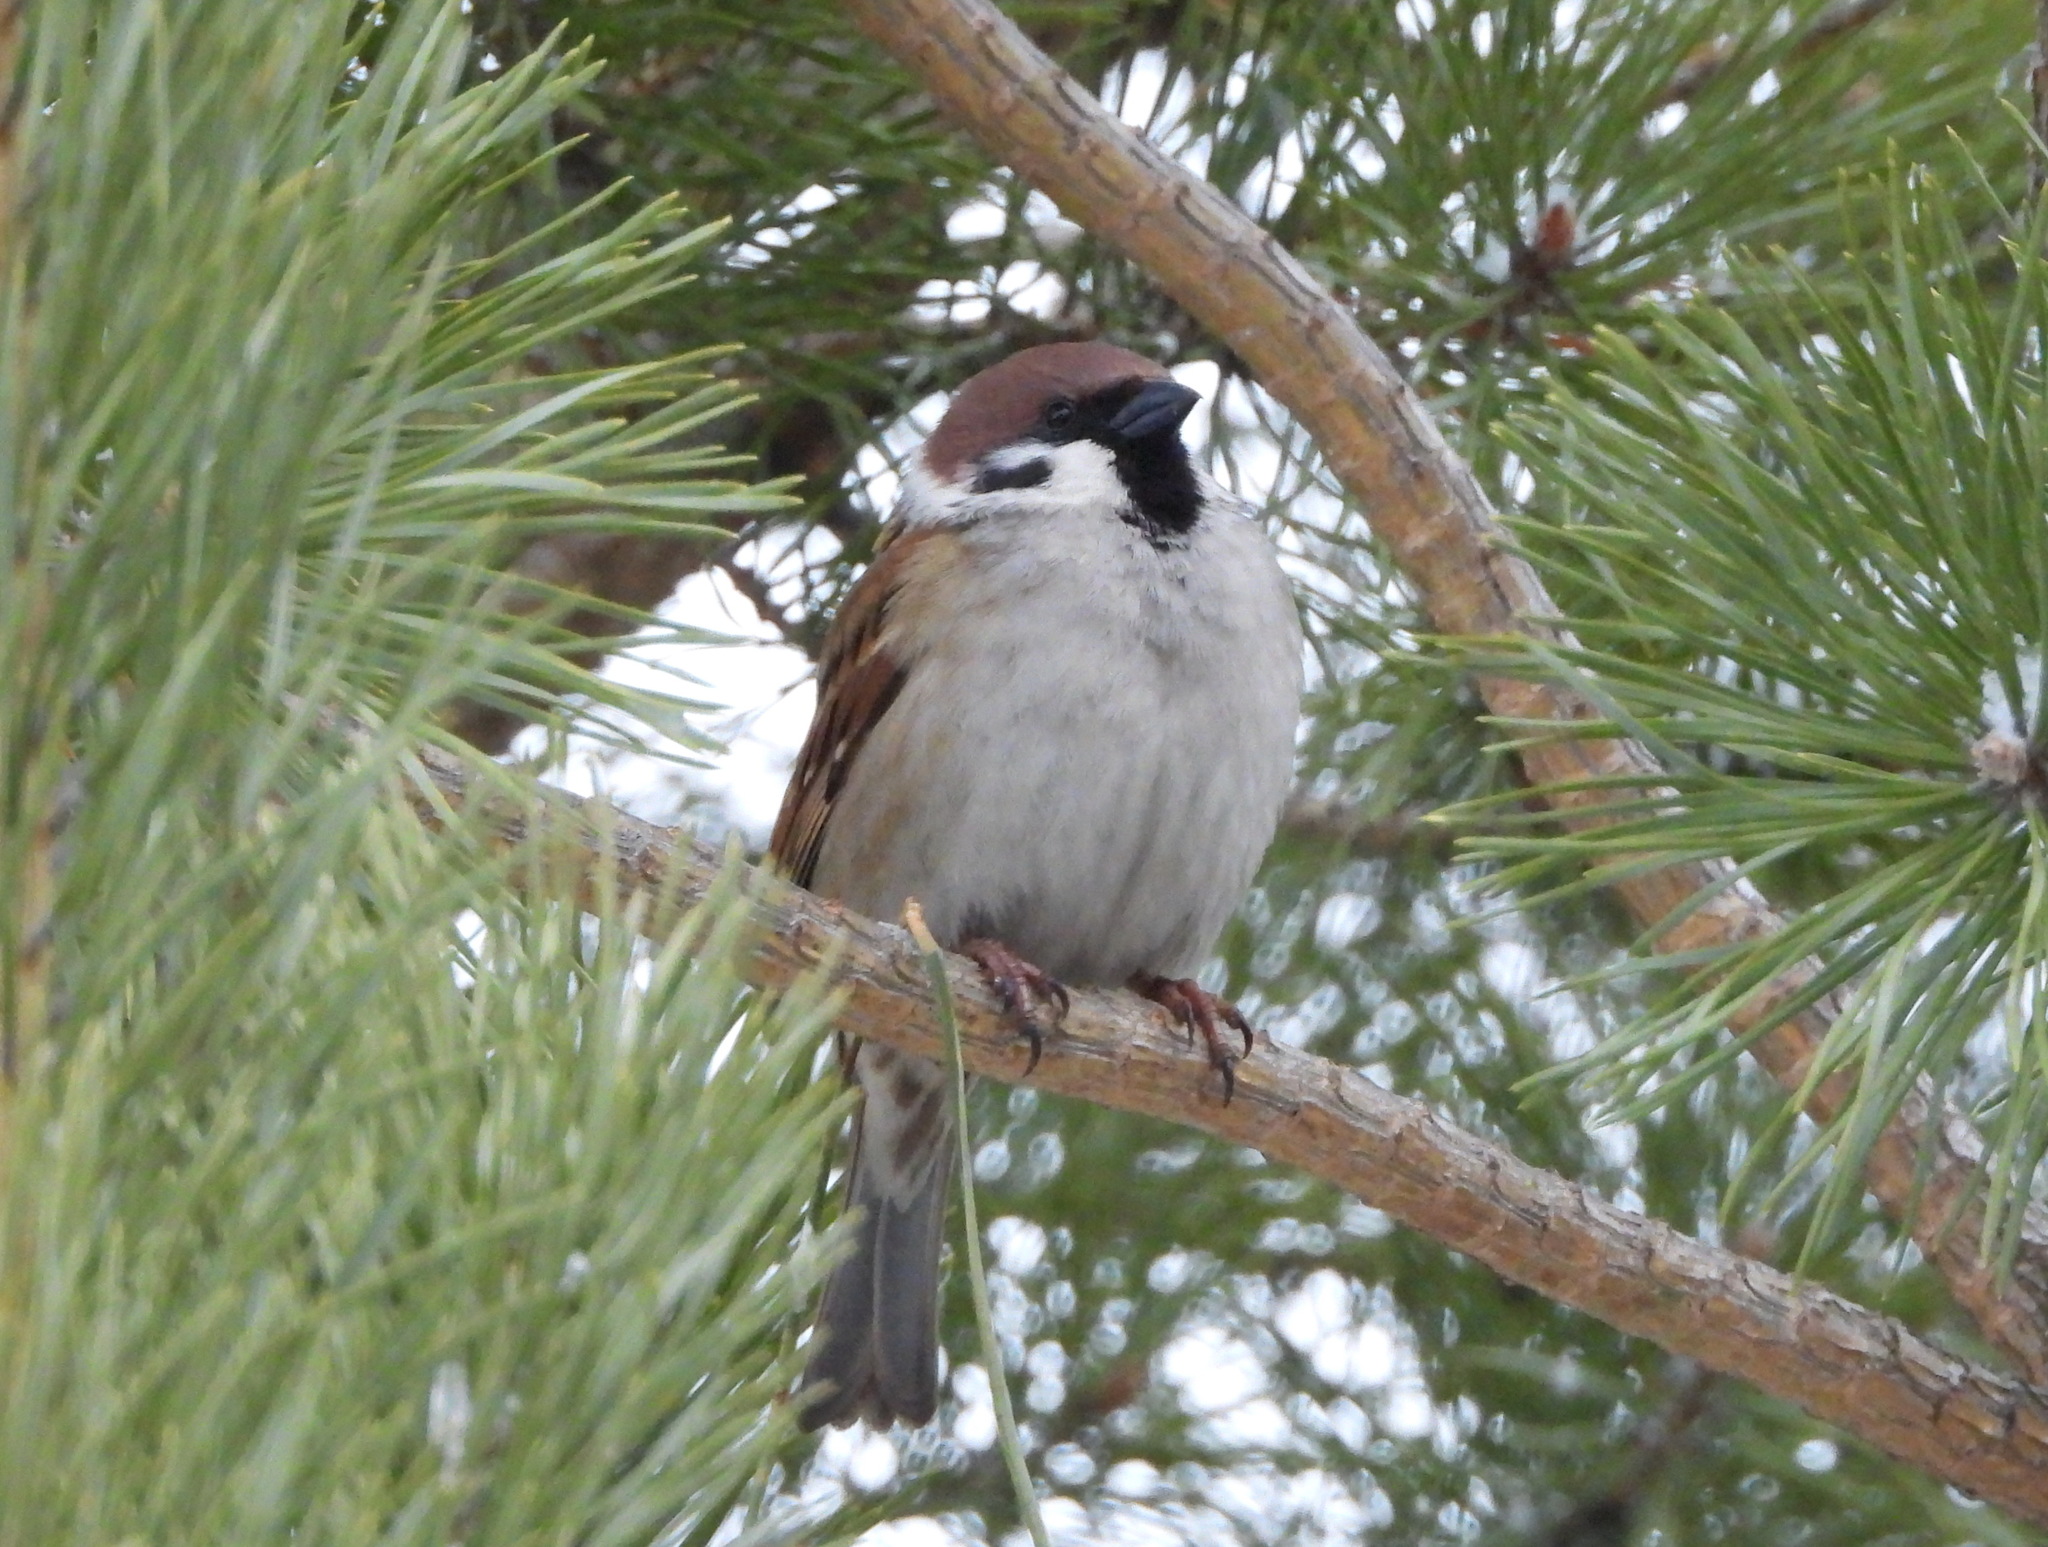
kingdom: Animalia
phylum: Chordata
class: Aves
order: Passeriformes
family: Passeridae
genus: Passer
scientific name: Passer montanus
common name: Eurasian tree sparrow
